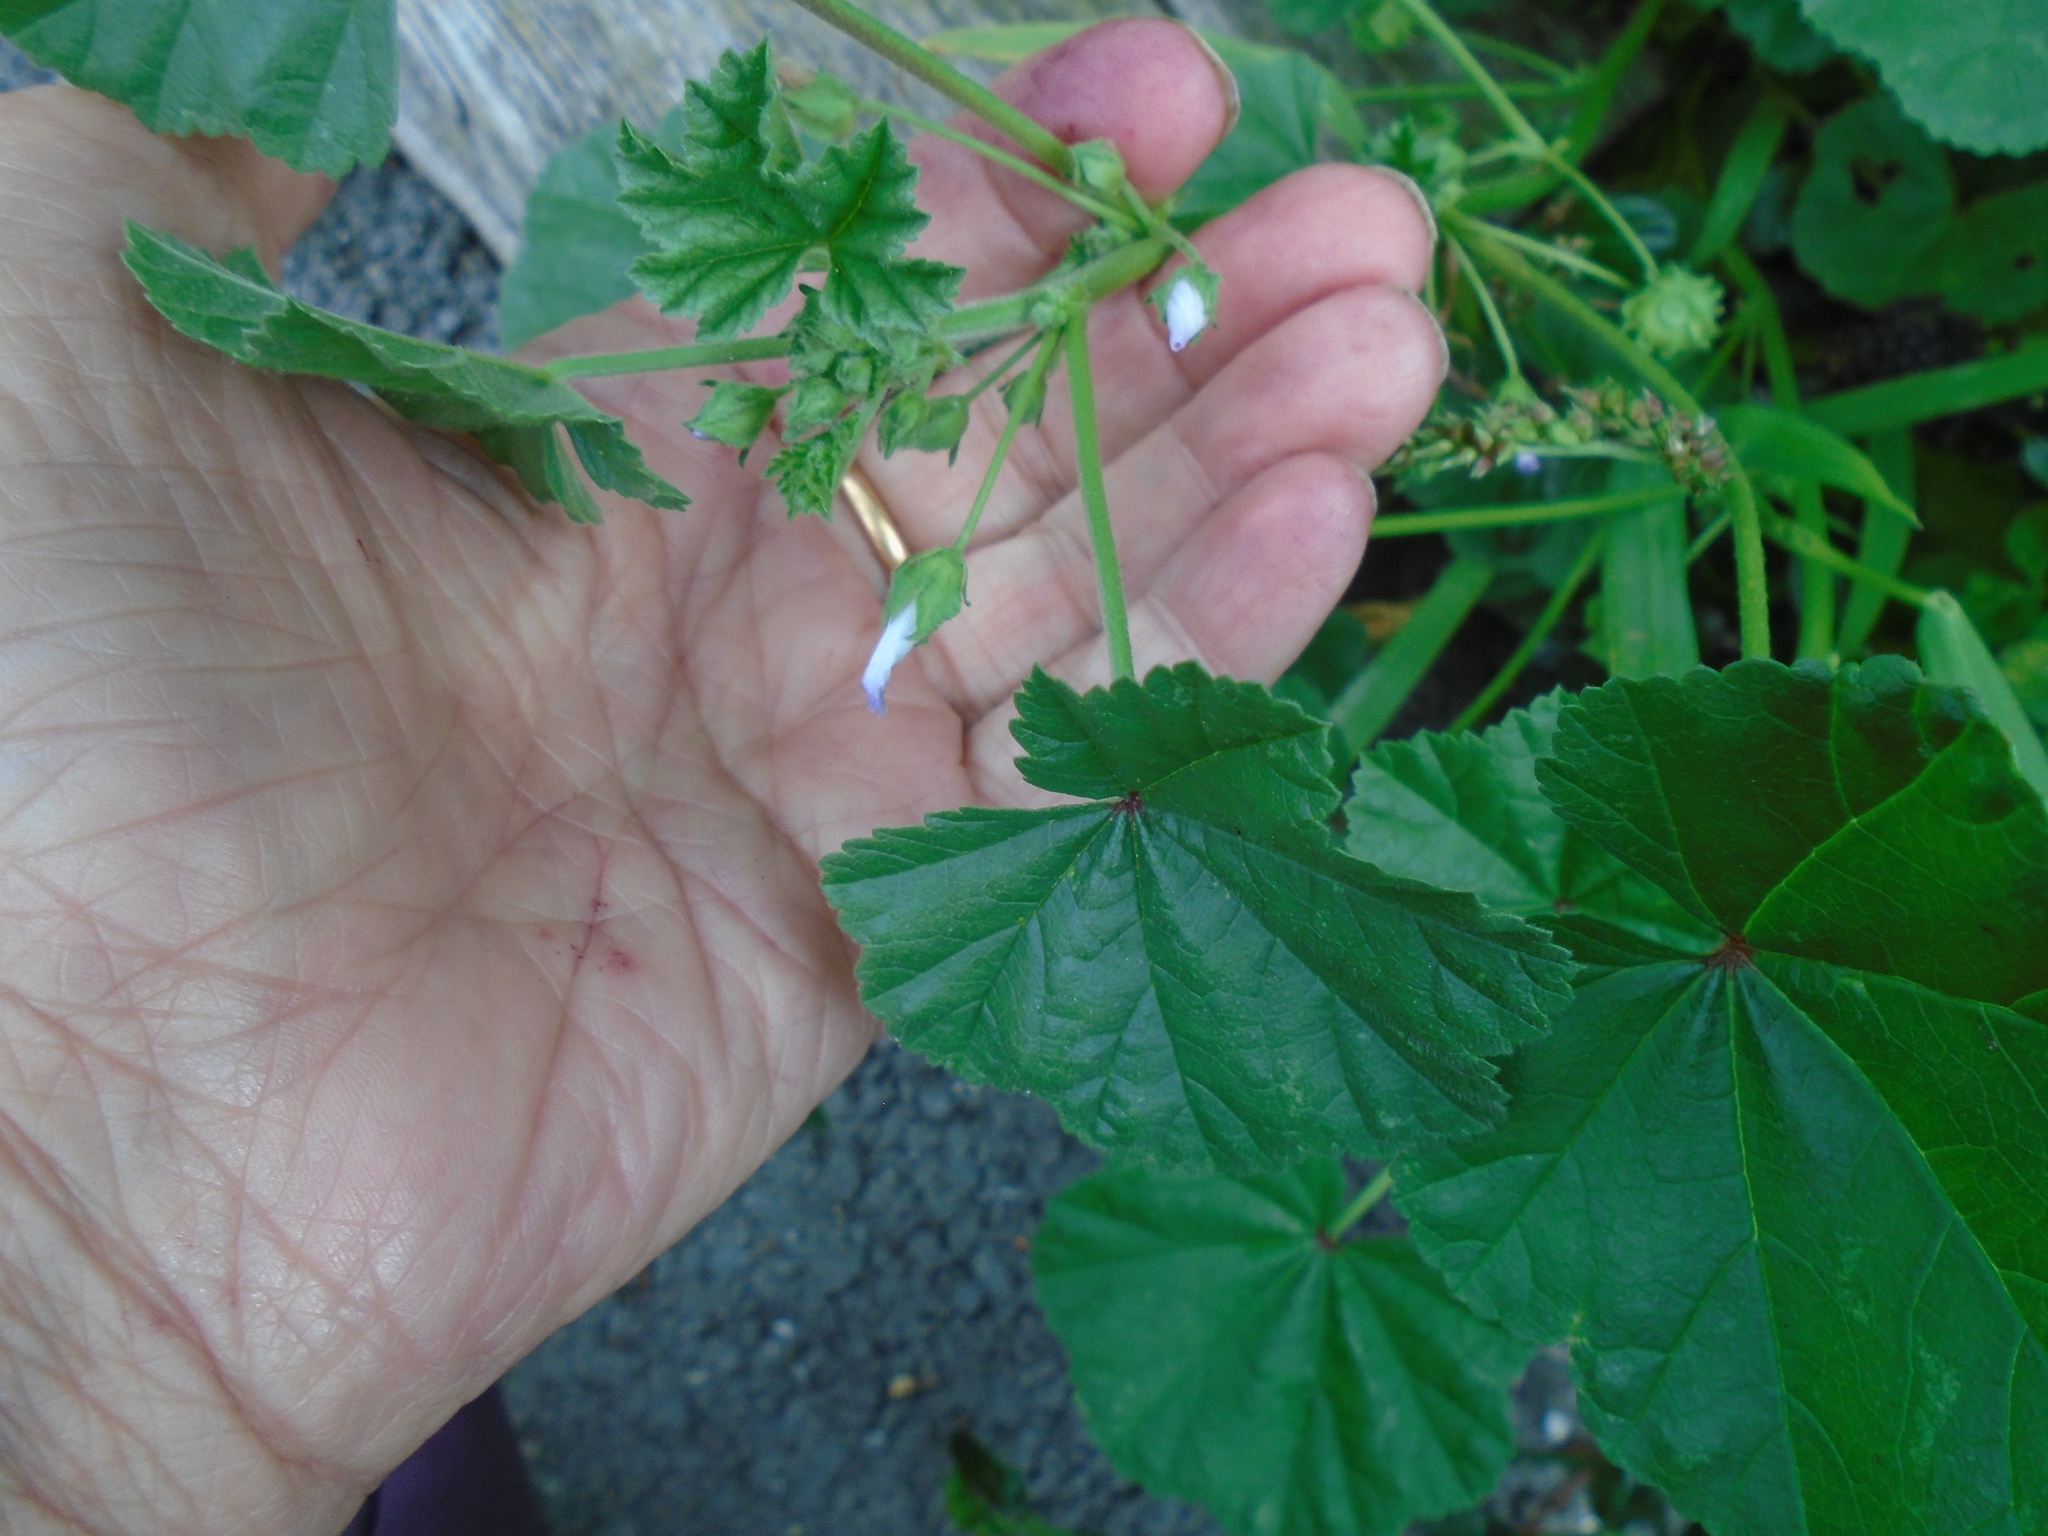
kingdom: Plantae
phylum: Tracheophyta
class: Magnoliopsida
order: Malvales
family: Malvaceae
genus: Malva
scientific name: Malva neglecta
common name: Common mallow
